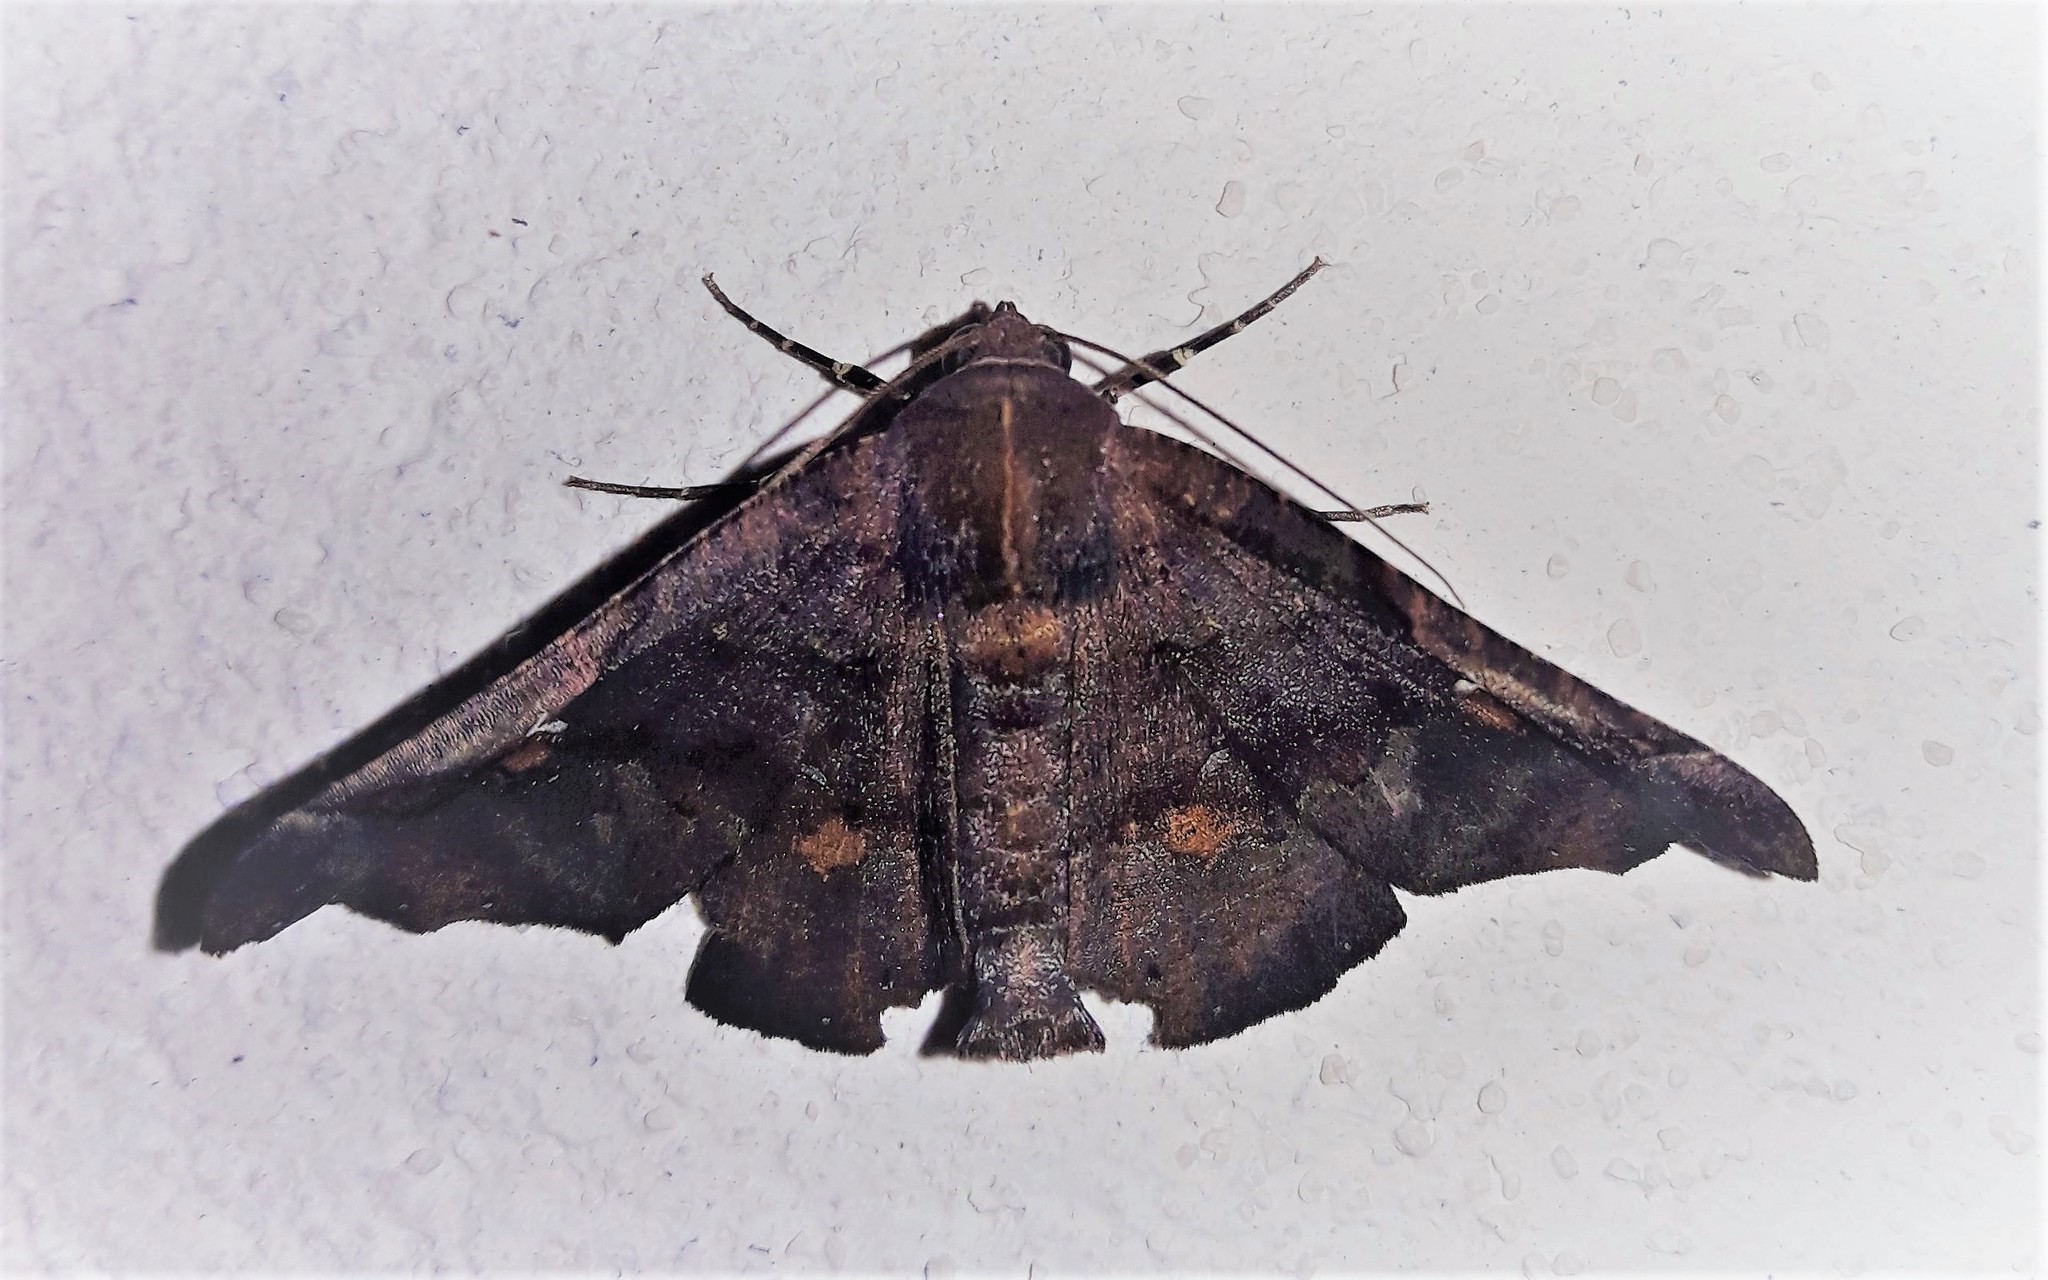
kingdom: Animalia
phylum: Arthropoda
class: Insecta
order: Lepidoptera
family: Geometridae
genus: Pero
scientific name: Pero circumflexata
